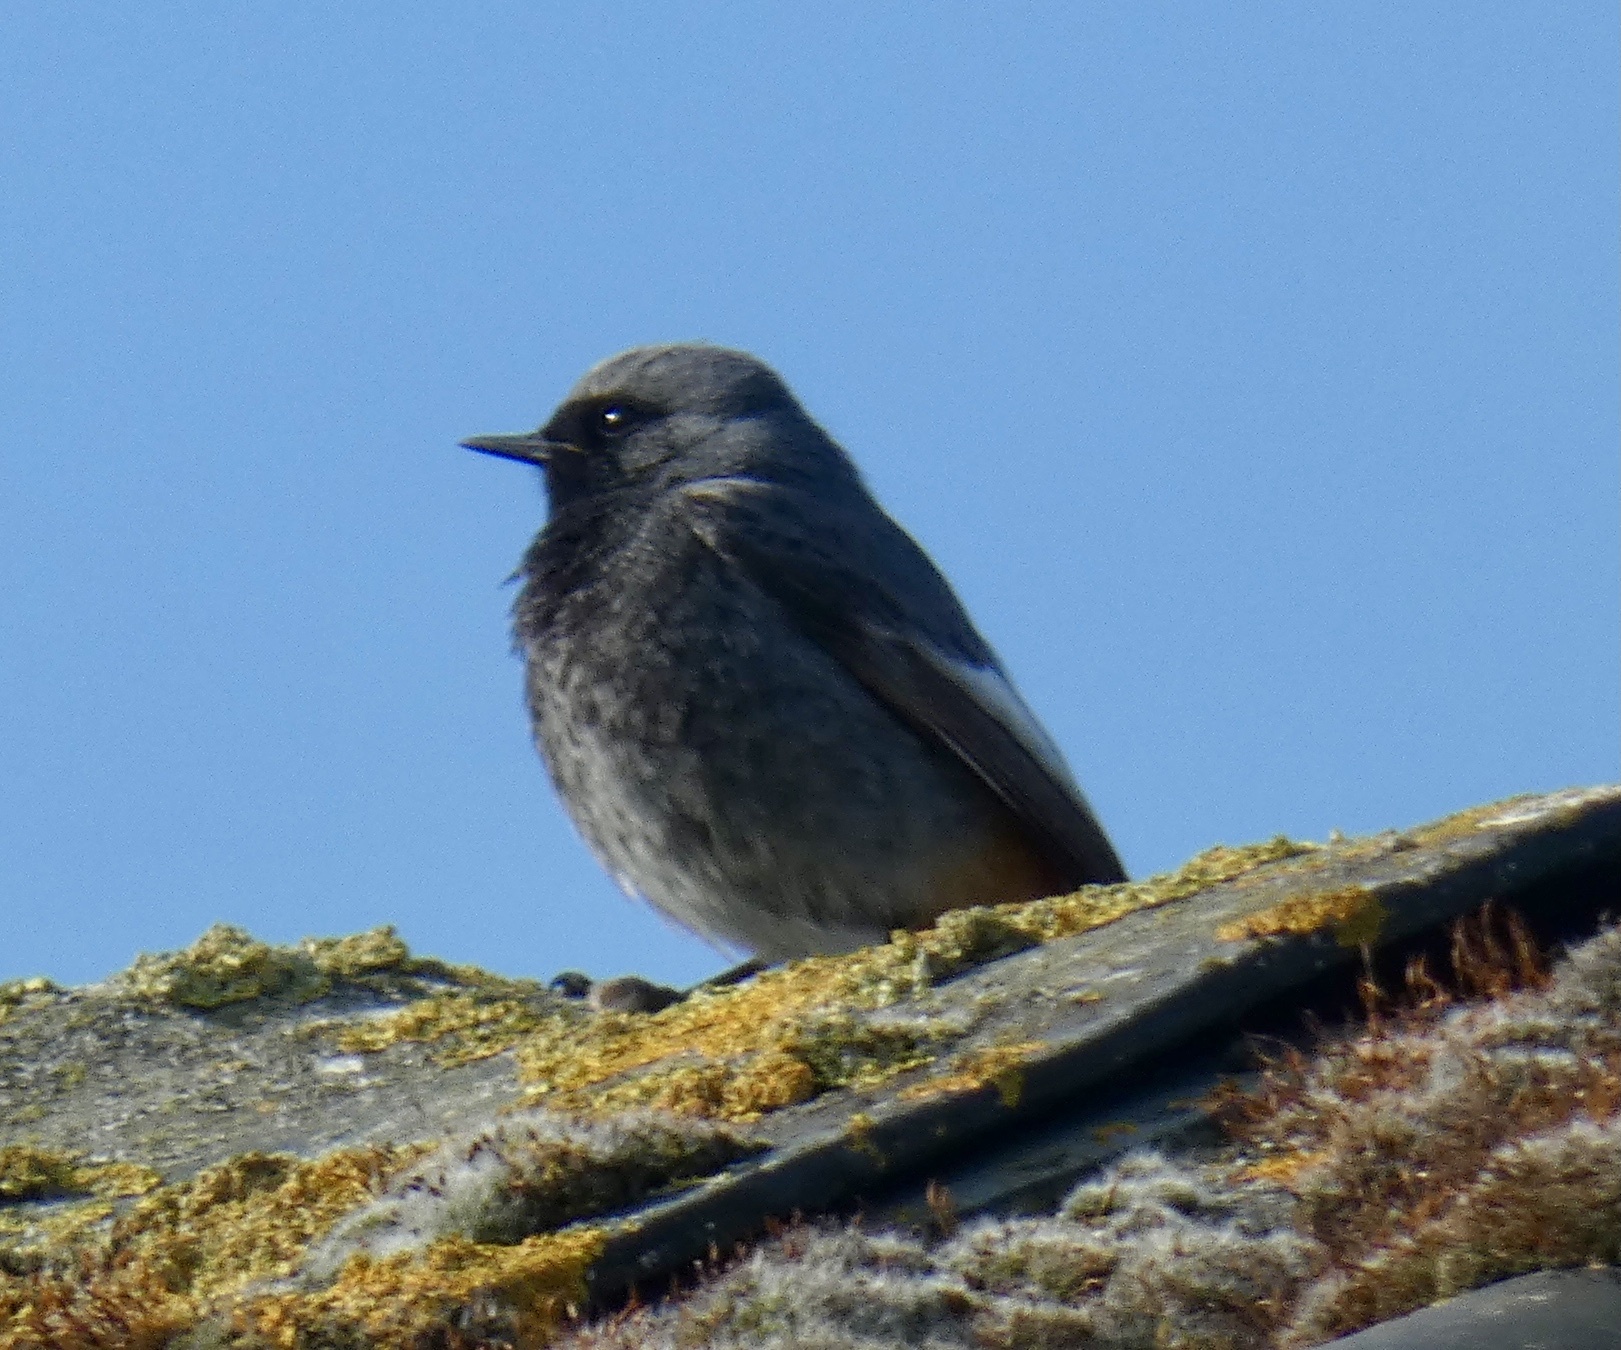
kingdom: Animalia
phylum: Chordata
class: Aves
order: Passeriformes
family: Muscicapidae
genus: Phoenicurus
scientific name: Phoenicurus ochruros
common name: Black redstart
